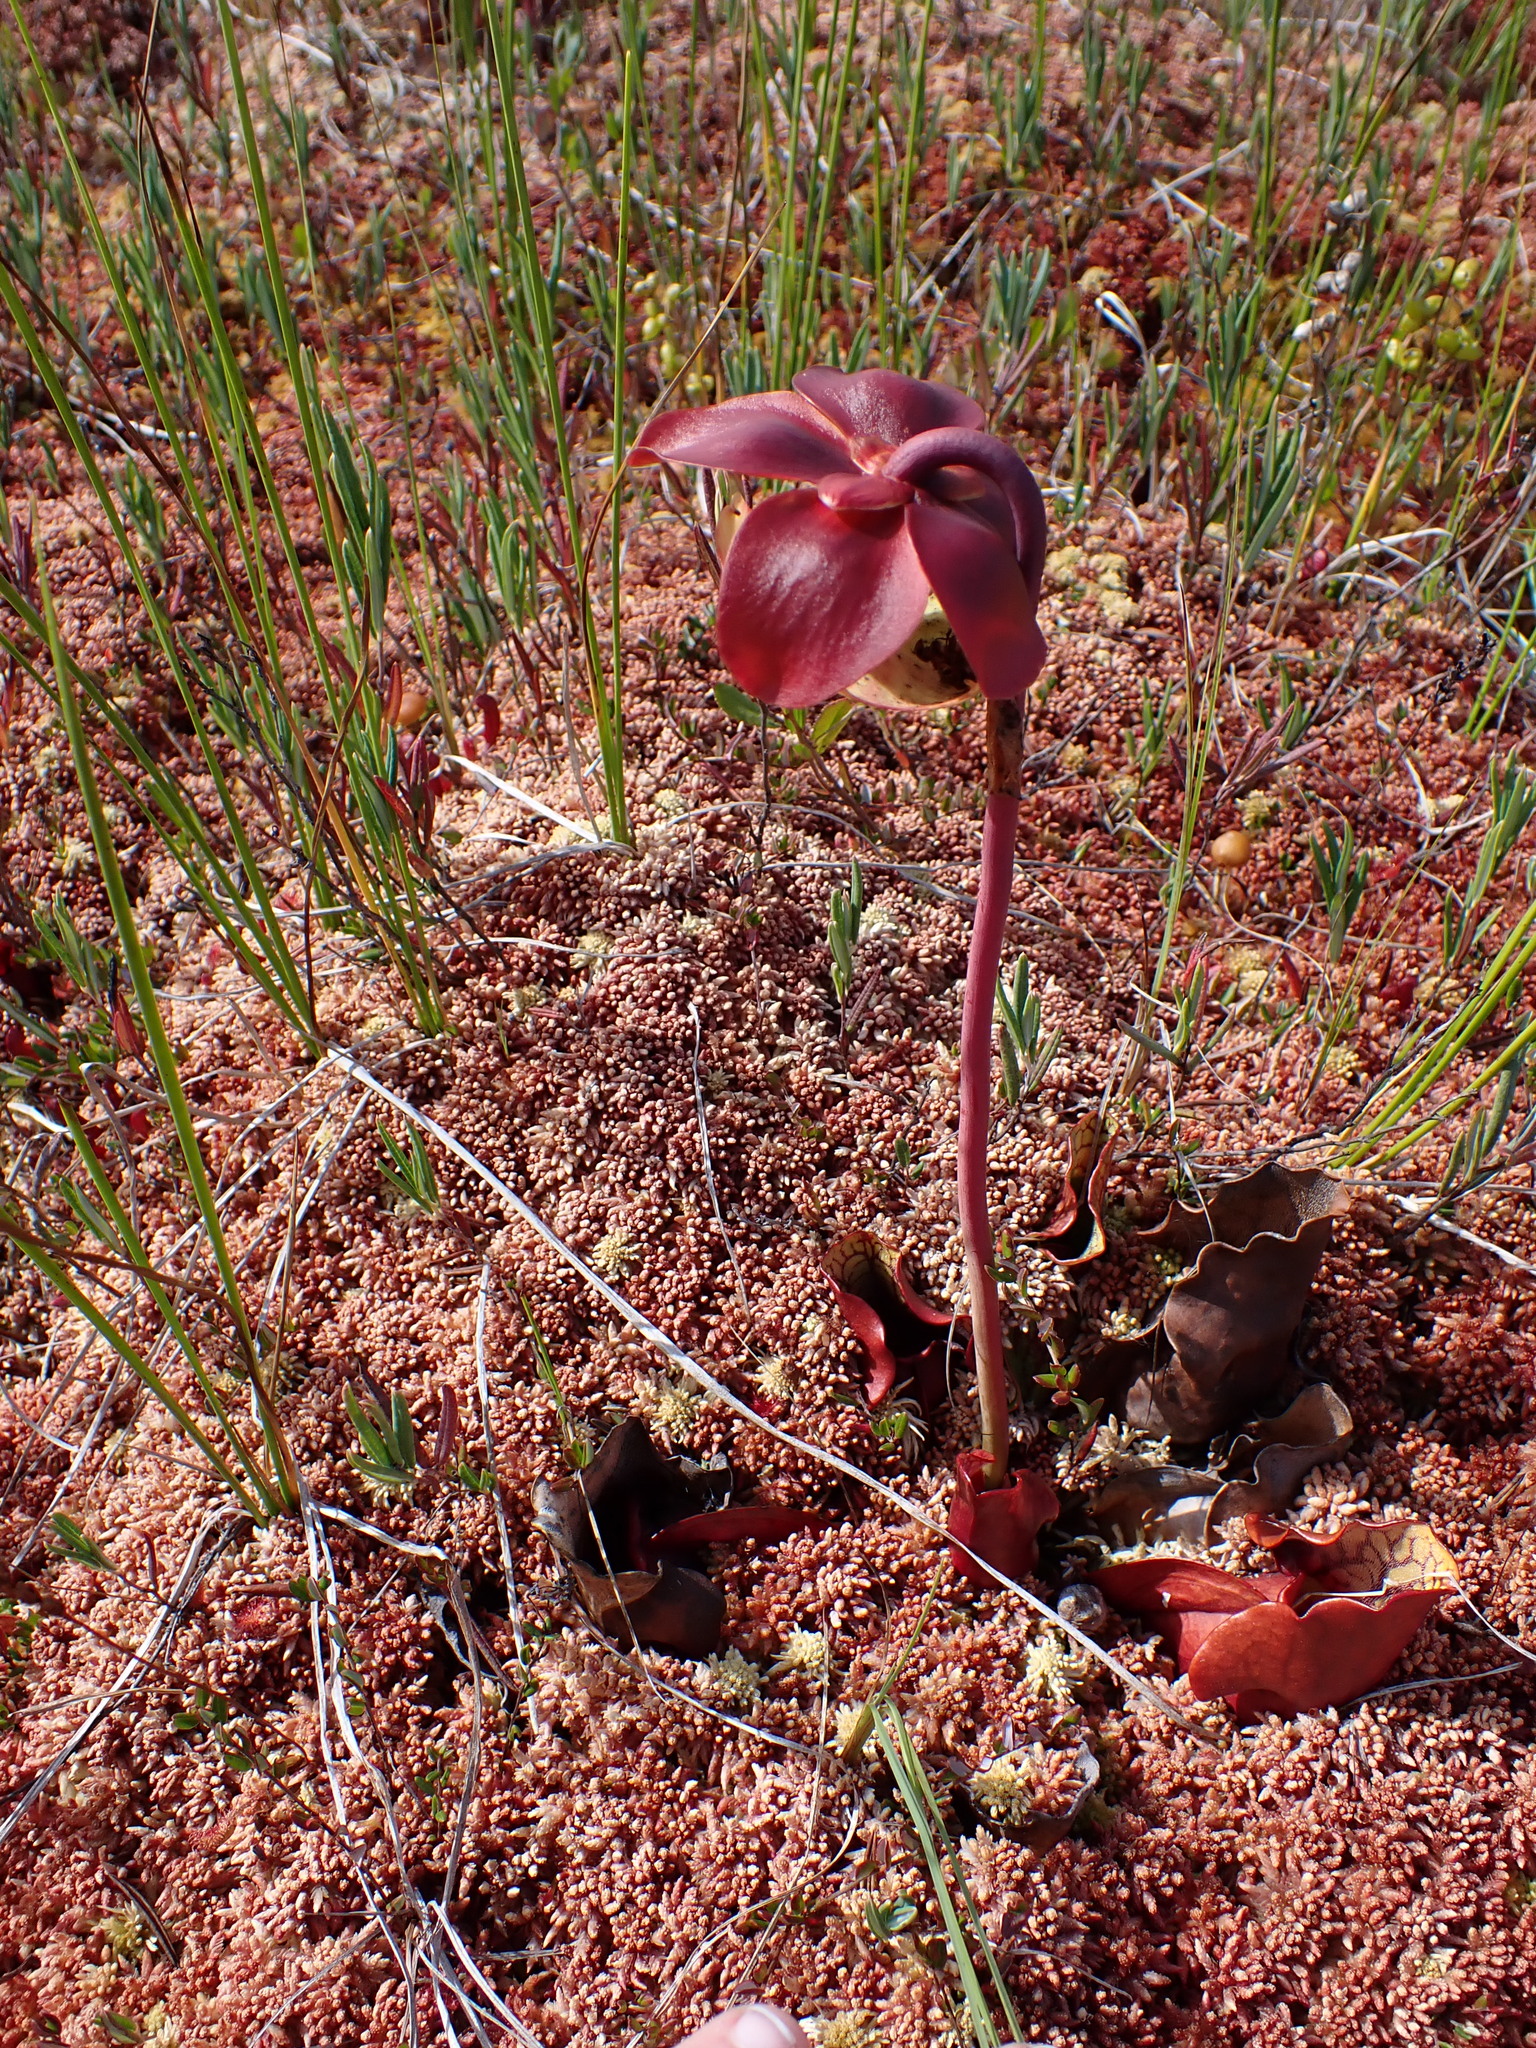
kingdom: Plantae
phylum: Tracheophyta
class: Magnoliopsida
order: Ericales
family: Sarraceniaceae
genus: Sarracenia
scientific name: Sarracenia purpurea
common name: Pitcherplant
